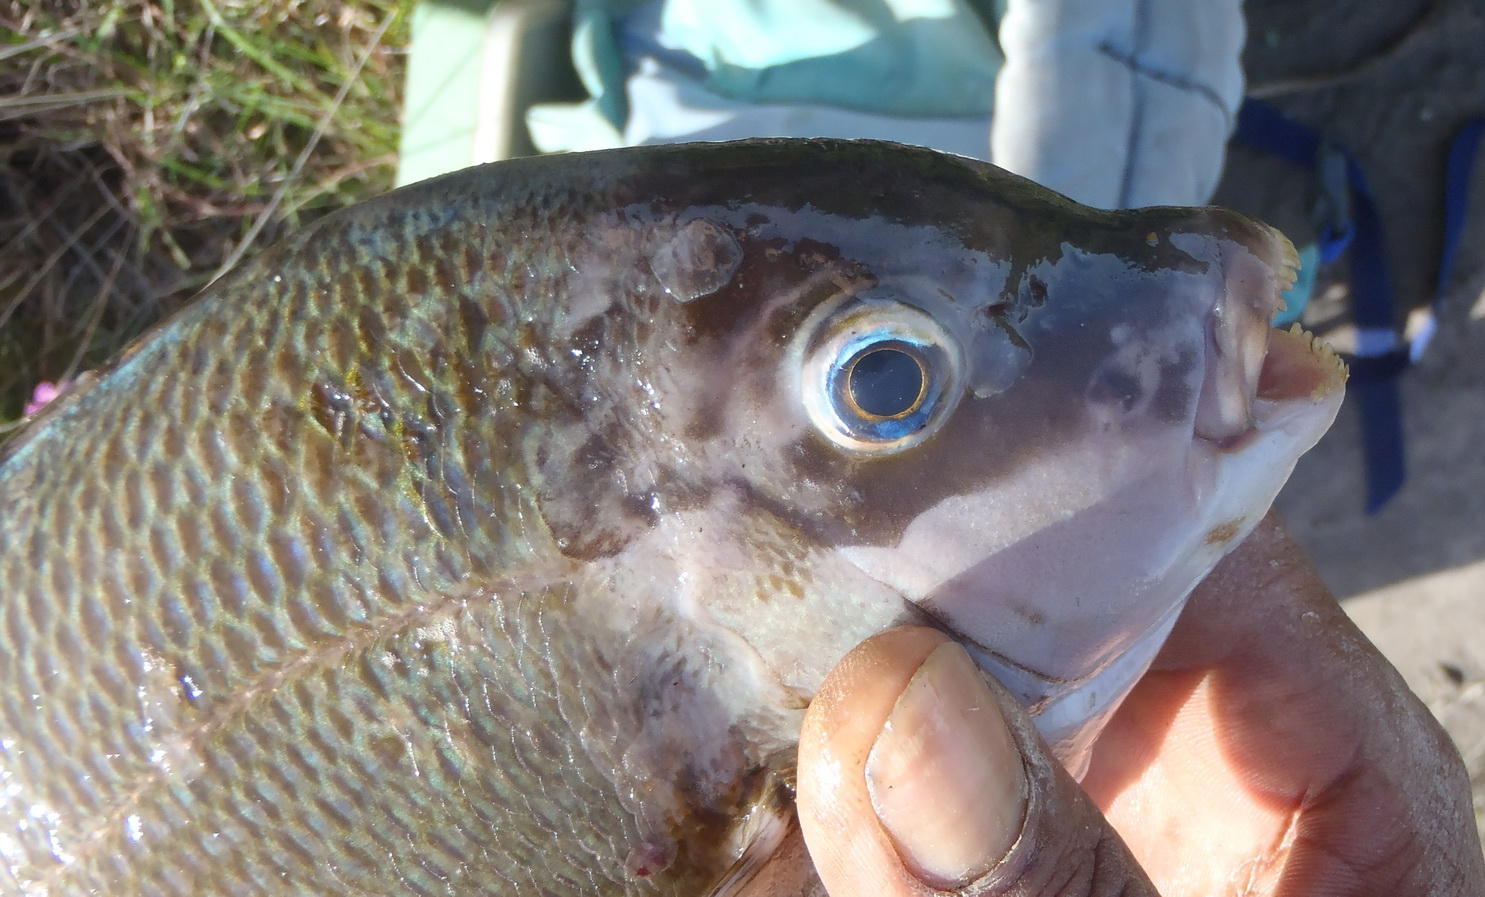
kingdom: Animalia
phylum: Chordata
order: Perciformes
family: Sparidae
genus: Spondyliosoma
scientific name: Spondyliosoma emarginatum
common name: Steentje seabream
